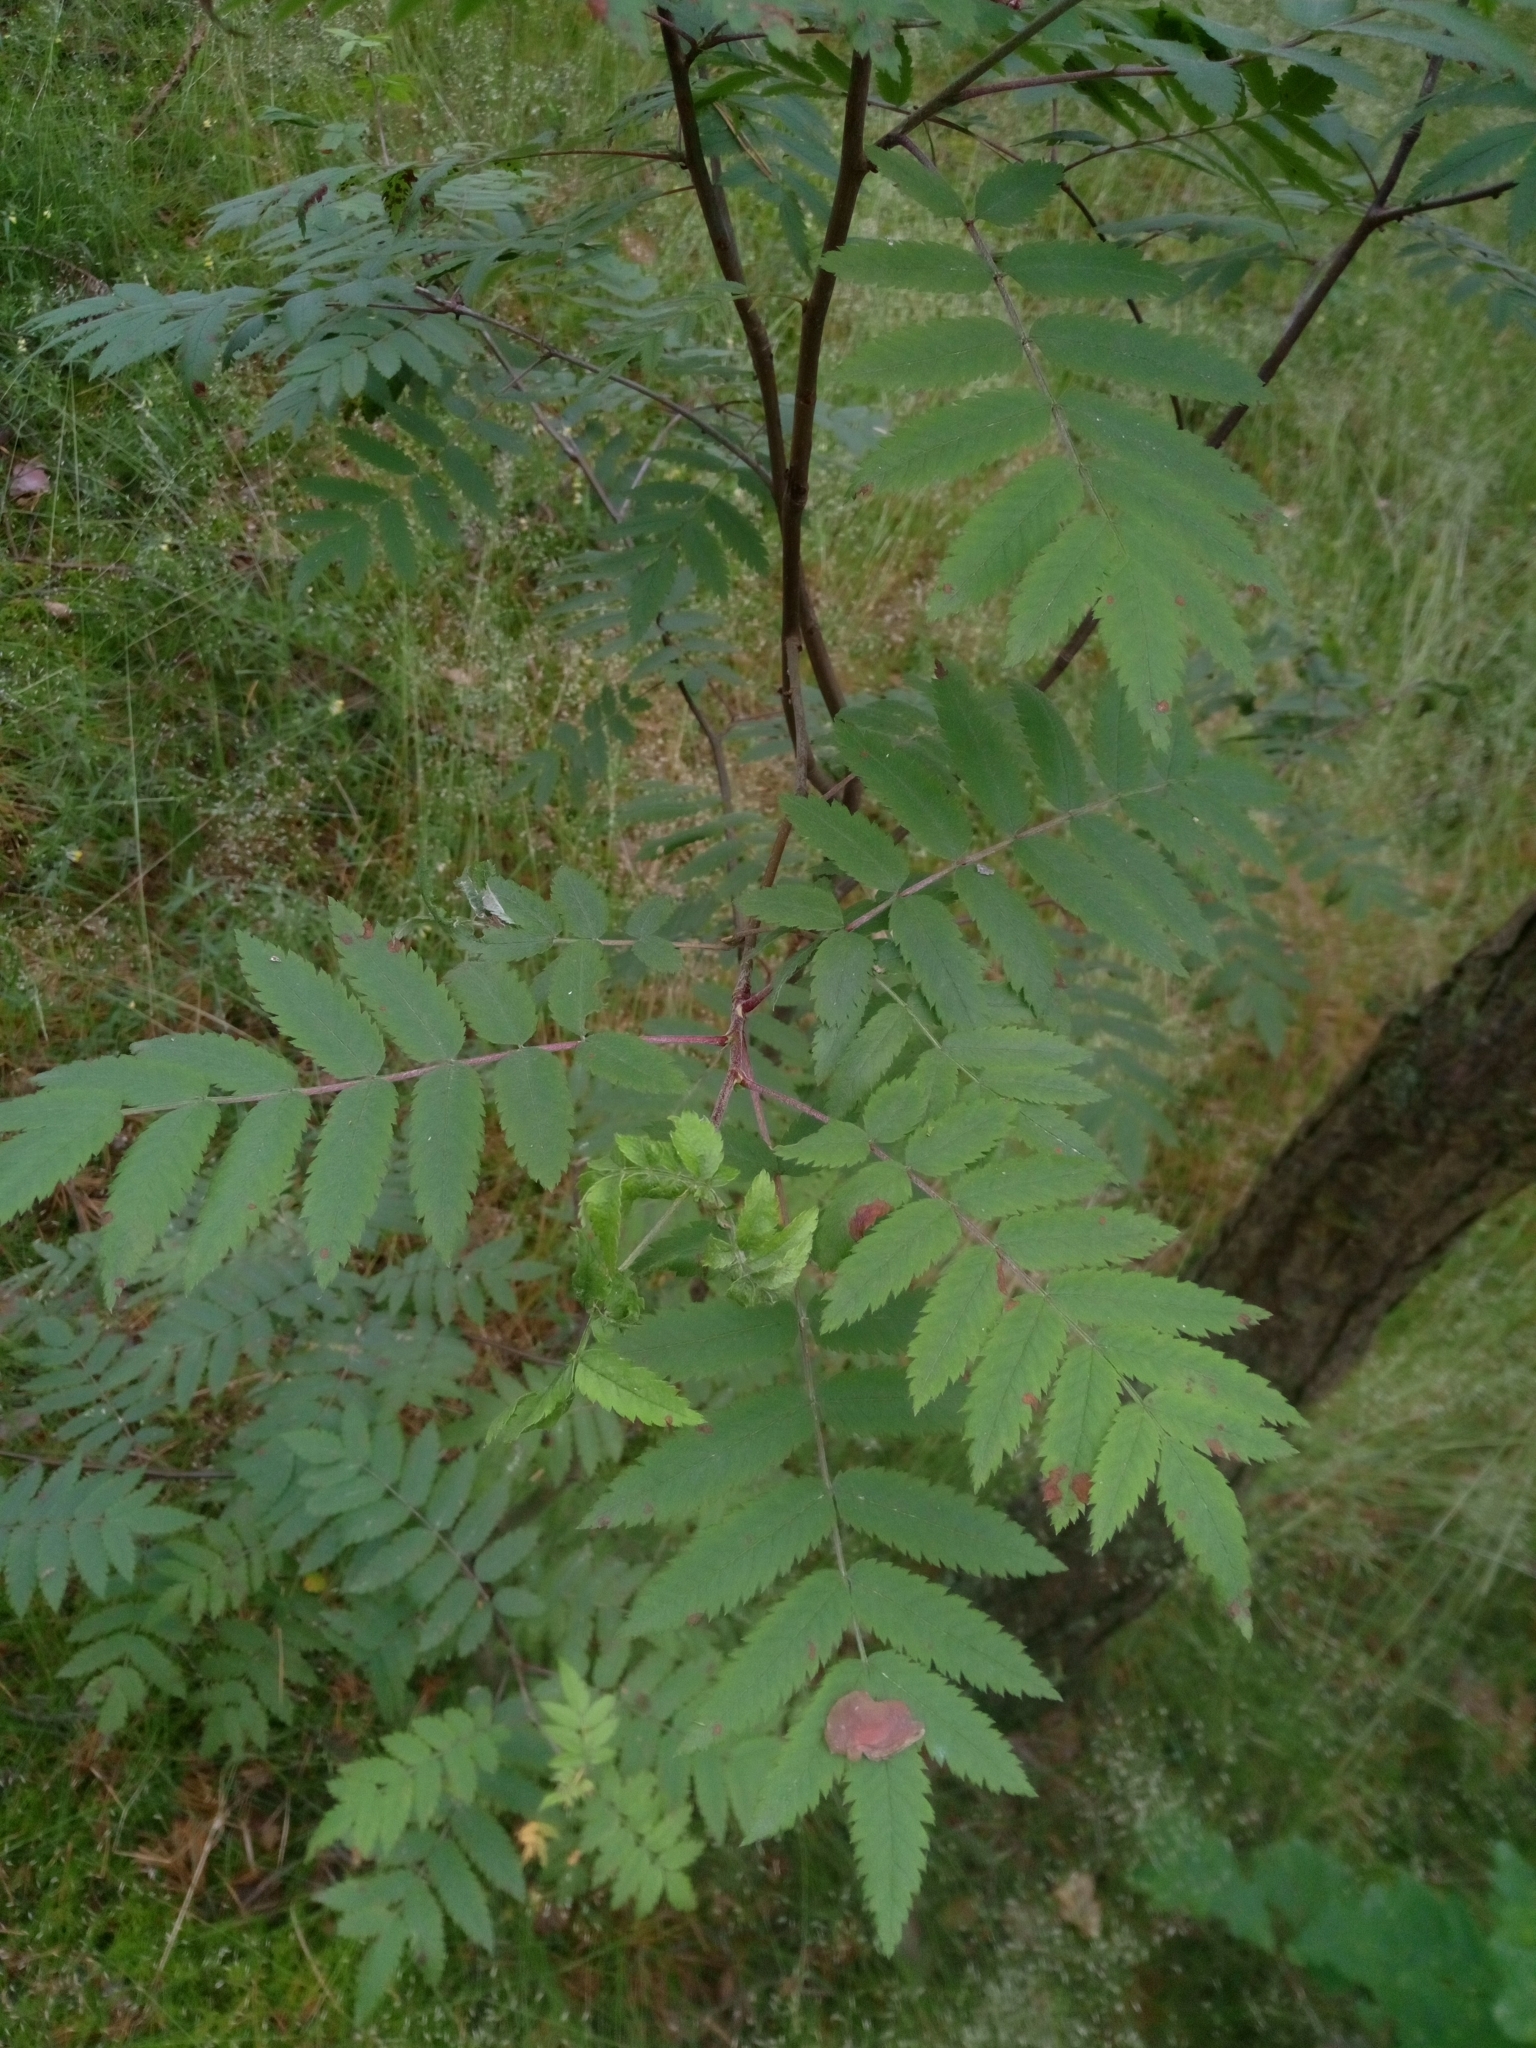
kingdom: Plantae
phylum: Tracheophyta
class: Magnoliopsida
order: Rosales
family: Rosaceae
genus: Sorbus
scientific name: Sorbus aucuparia
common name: Rowan
